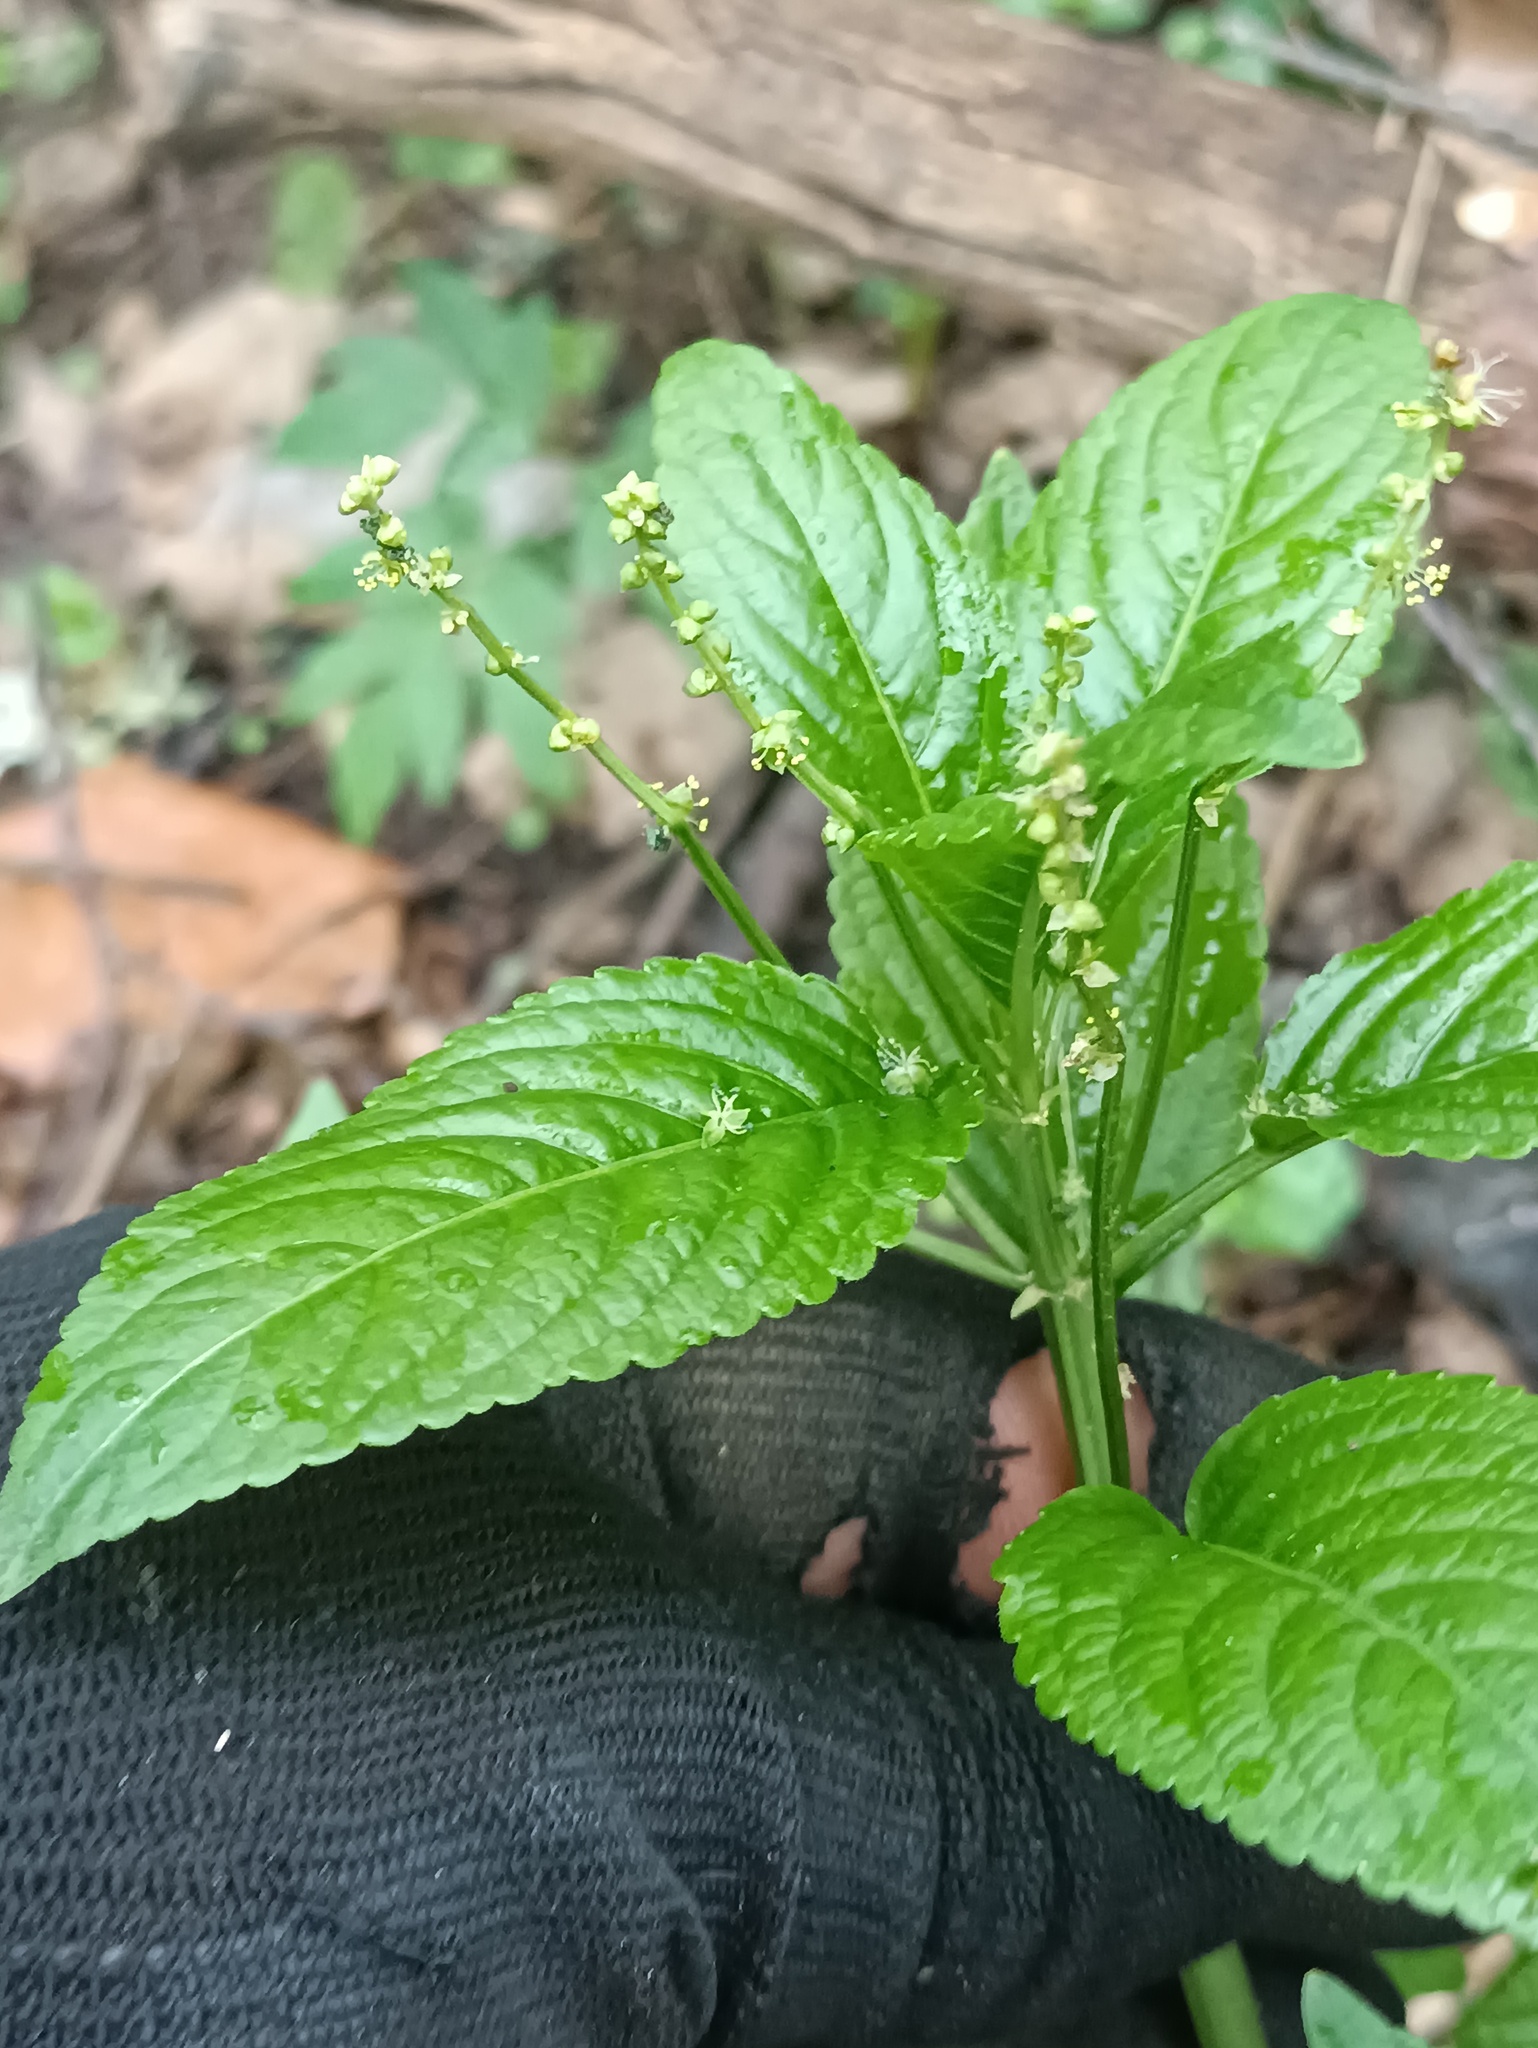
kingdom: Plantae
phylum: Tracheophyta
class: Magnoliopsida
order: Malpighiales
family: Euphorbiaceae
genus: Mercurialis
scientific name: Mercurialis perennis
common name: Dog mercury
